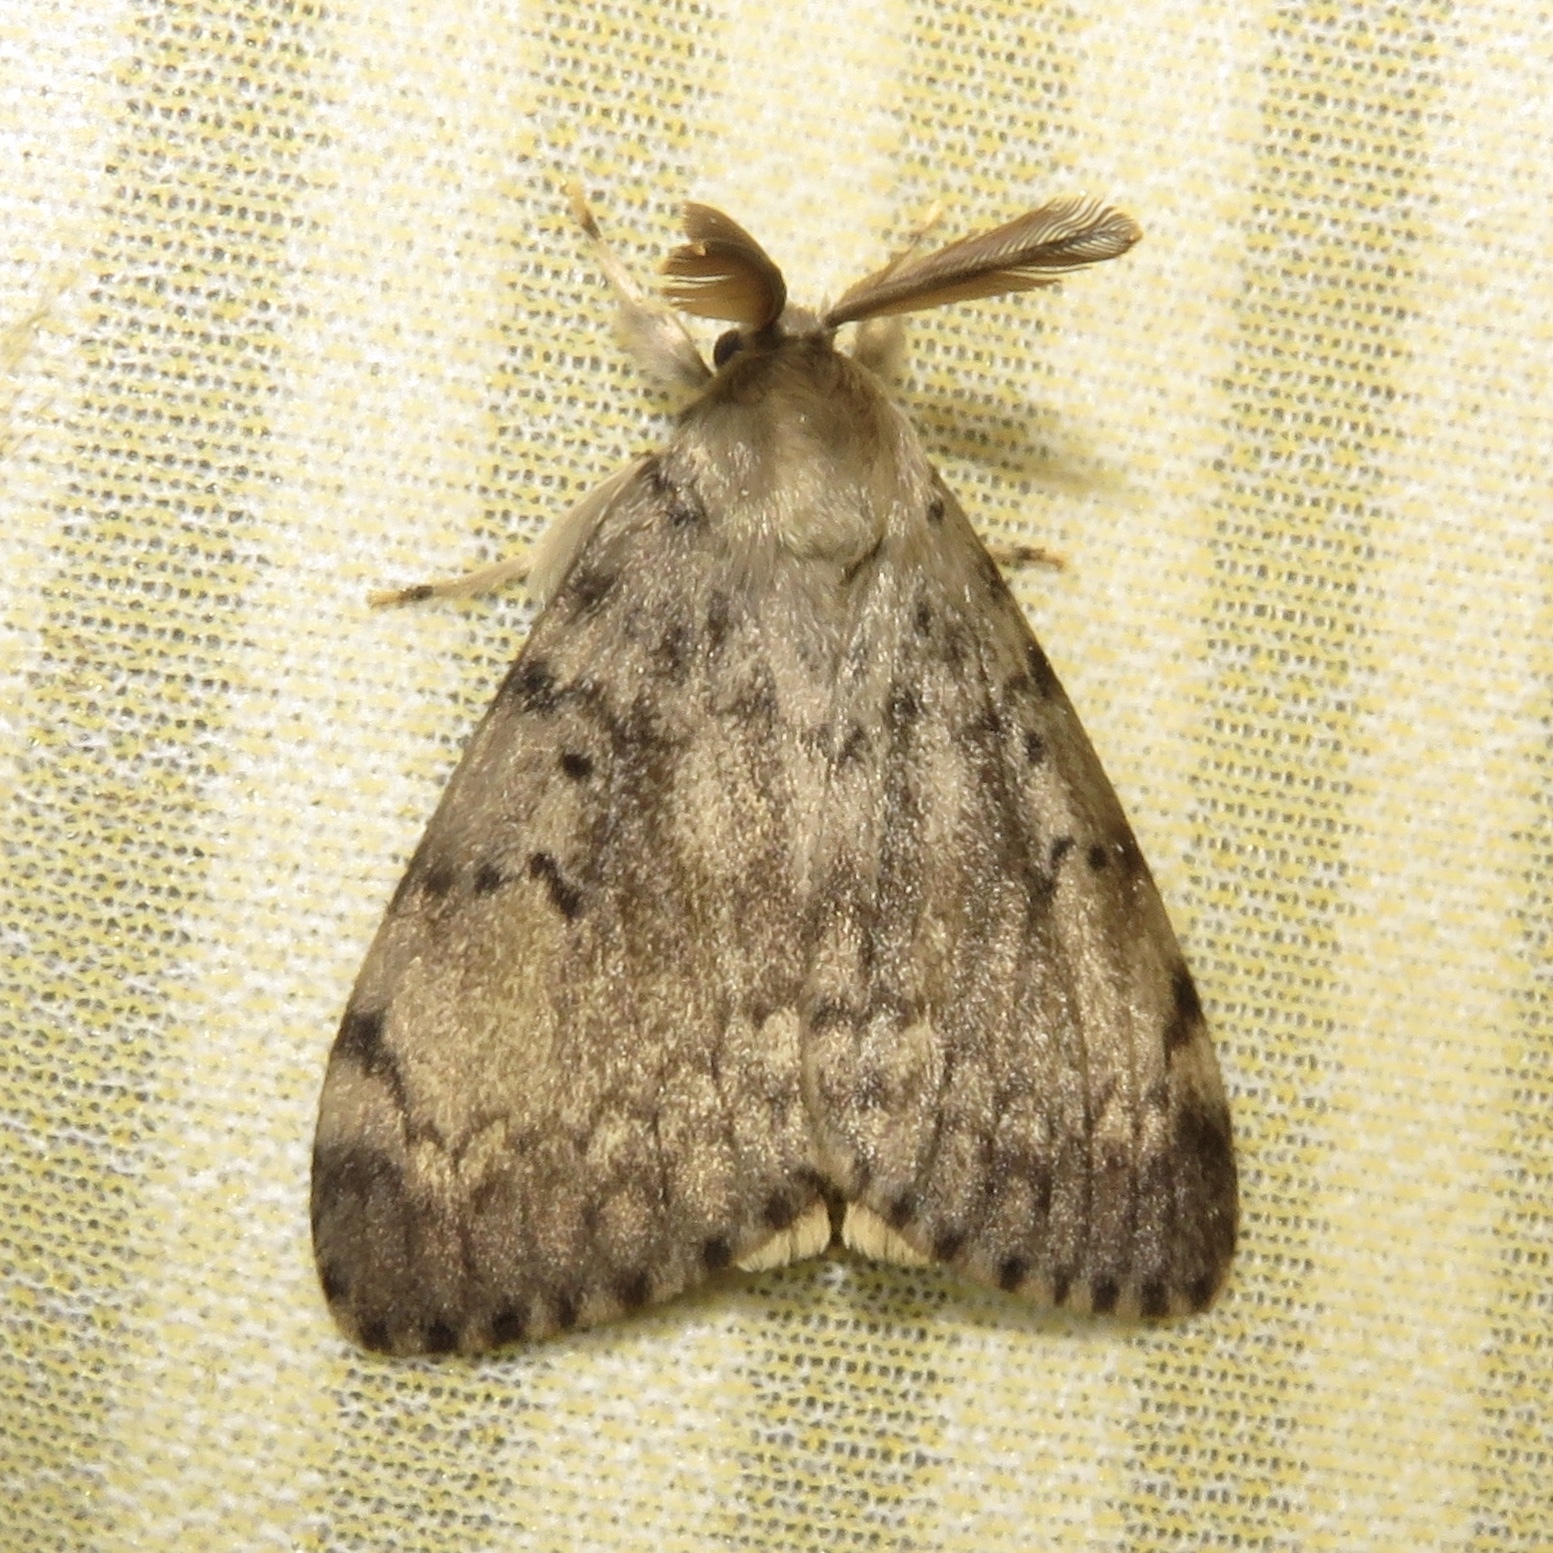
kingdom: Animalia
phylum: Arthropoda
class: Insecta
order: Lepidoptera
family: Erebidae
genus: Lymantria
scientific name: Lymantria dispar
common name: Gypsy moth
